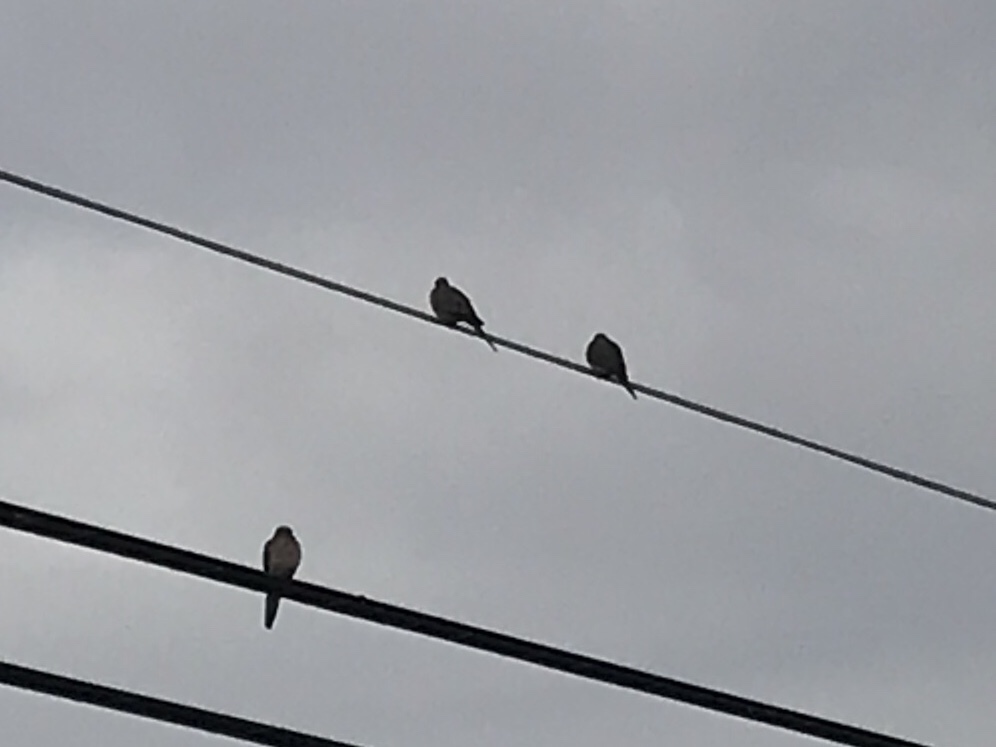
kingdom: Animalia
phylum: Chordata
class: Aves
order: Columbiformes
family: Columbidae
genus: Zenaida
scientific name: Zenaida macroura
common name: Mourning dove
